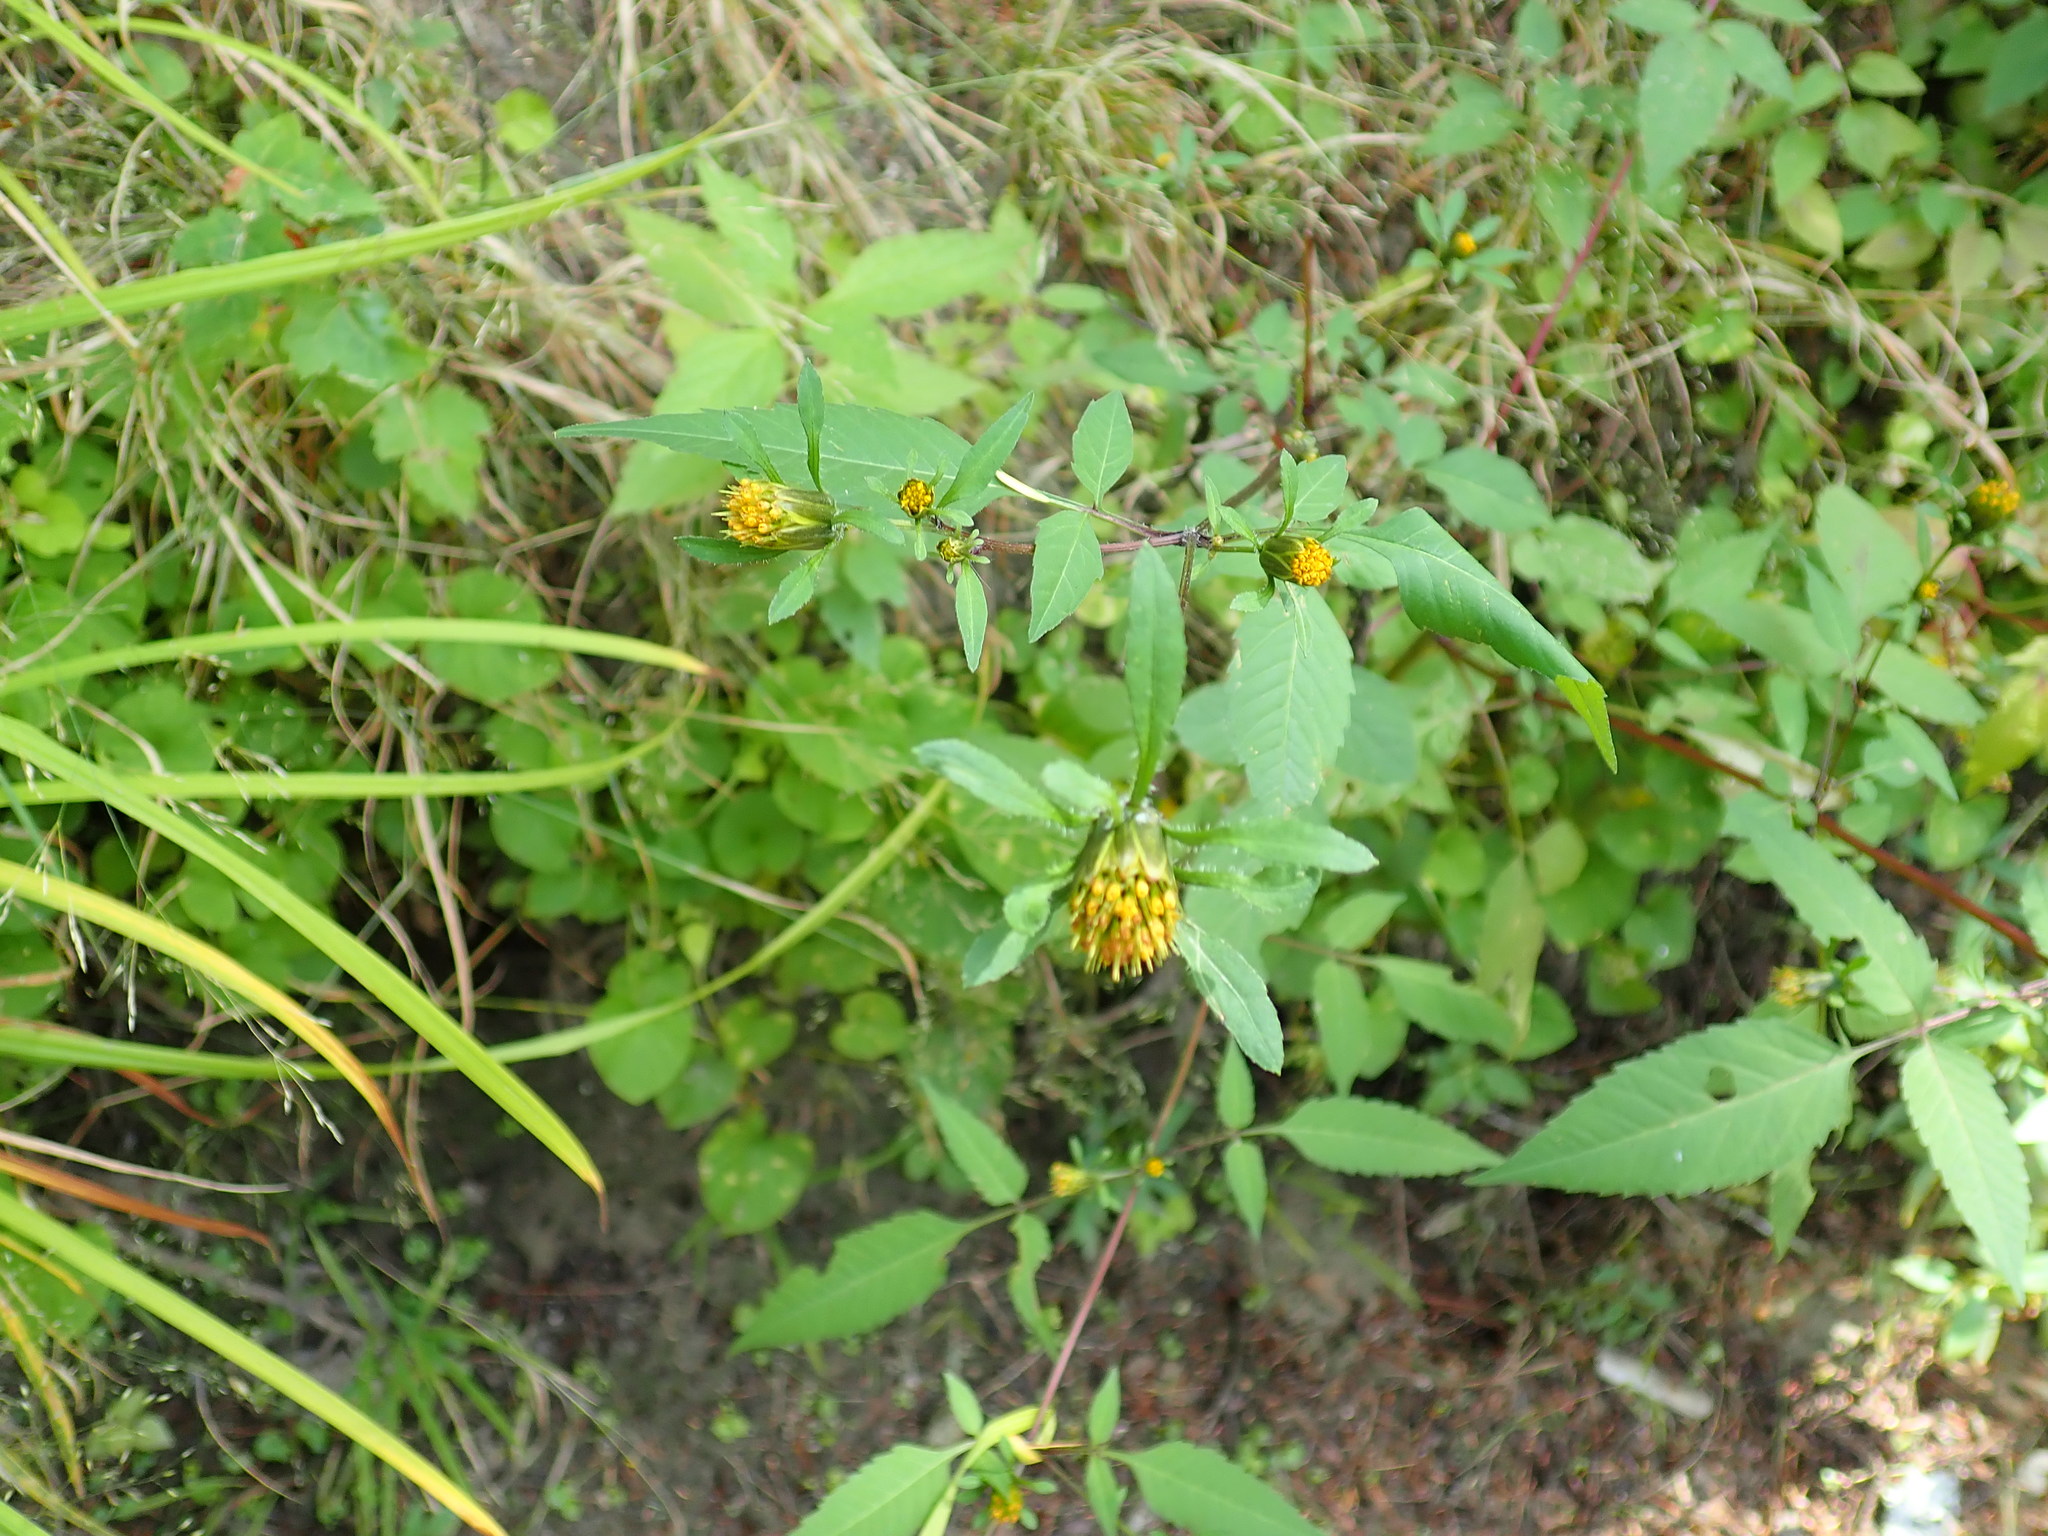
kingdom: Plantae
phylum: Tracheophyta
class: Magnoliopsida
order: Asterales
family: Asteraceae
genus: Bidens
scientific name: Bidens frondosa
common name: Beggarticks
